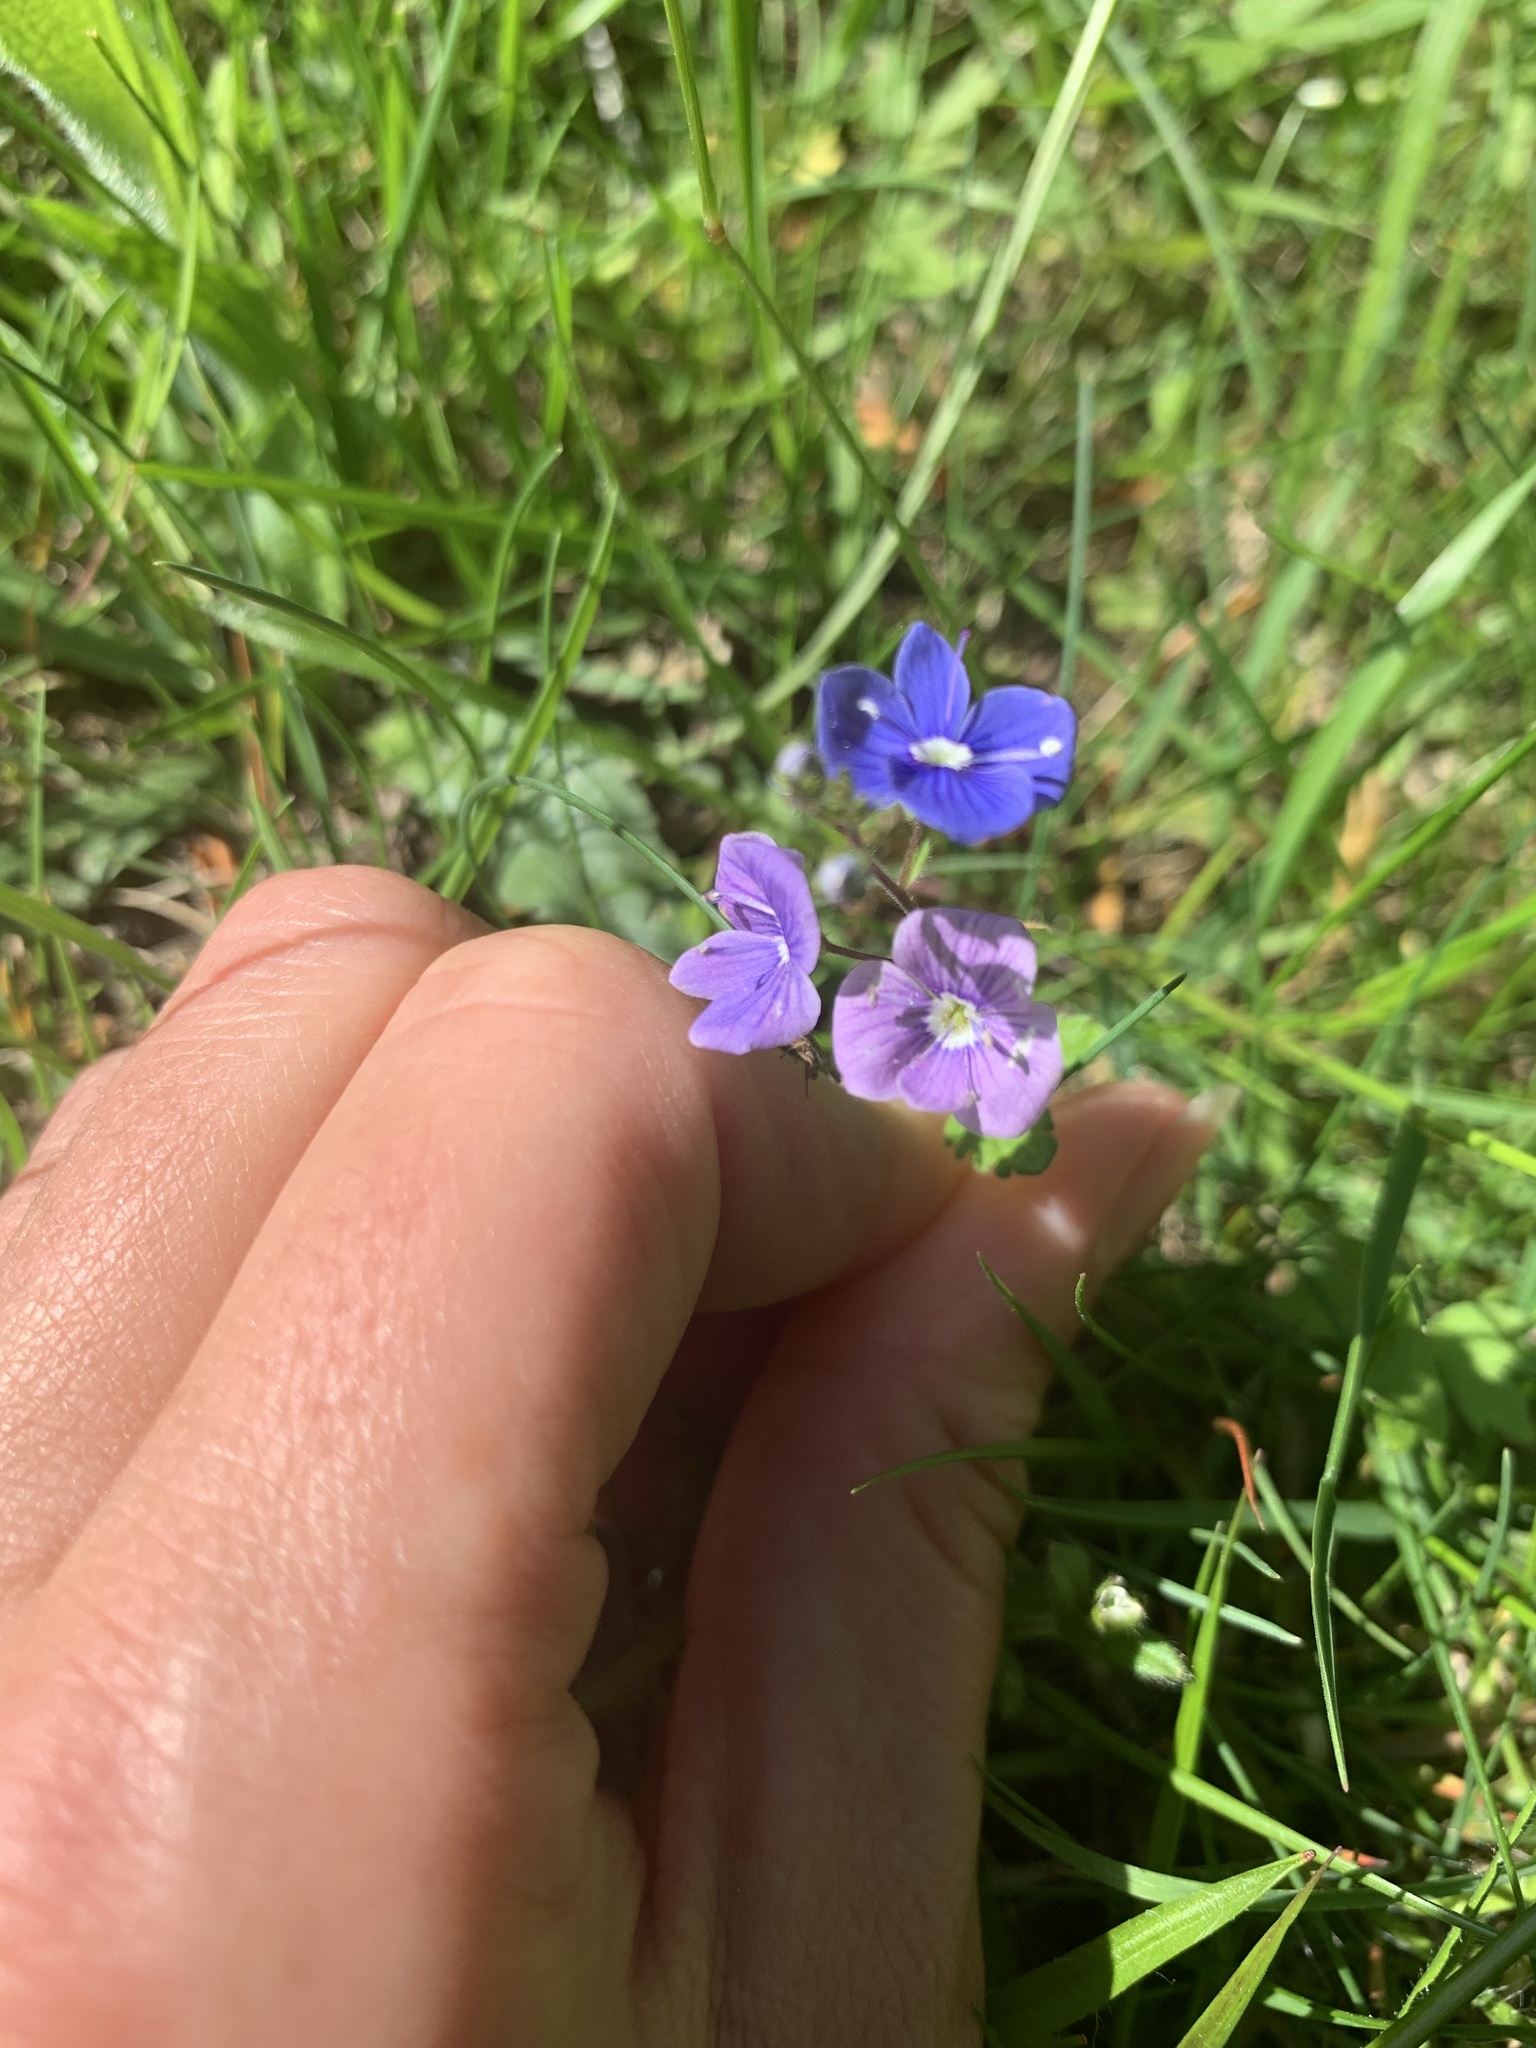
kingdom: Plantae
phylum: Tracheophyta
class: Magnoliopsida
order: Lamiales
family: Plantaginaceae
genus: Veronica
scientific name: Veronica chamaedrys
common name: Germander speedwell
